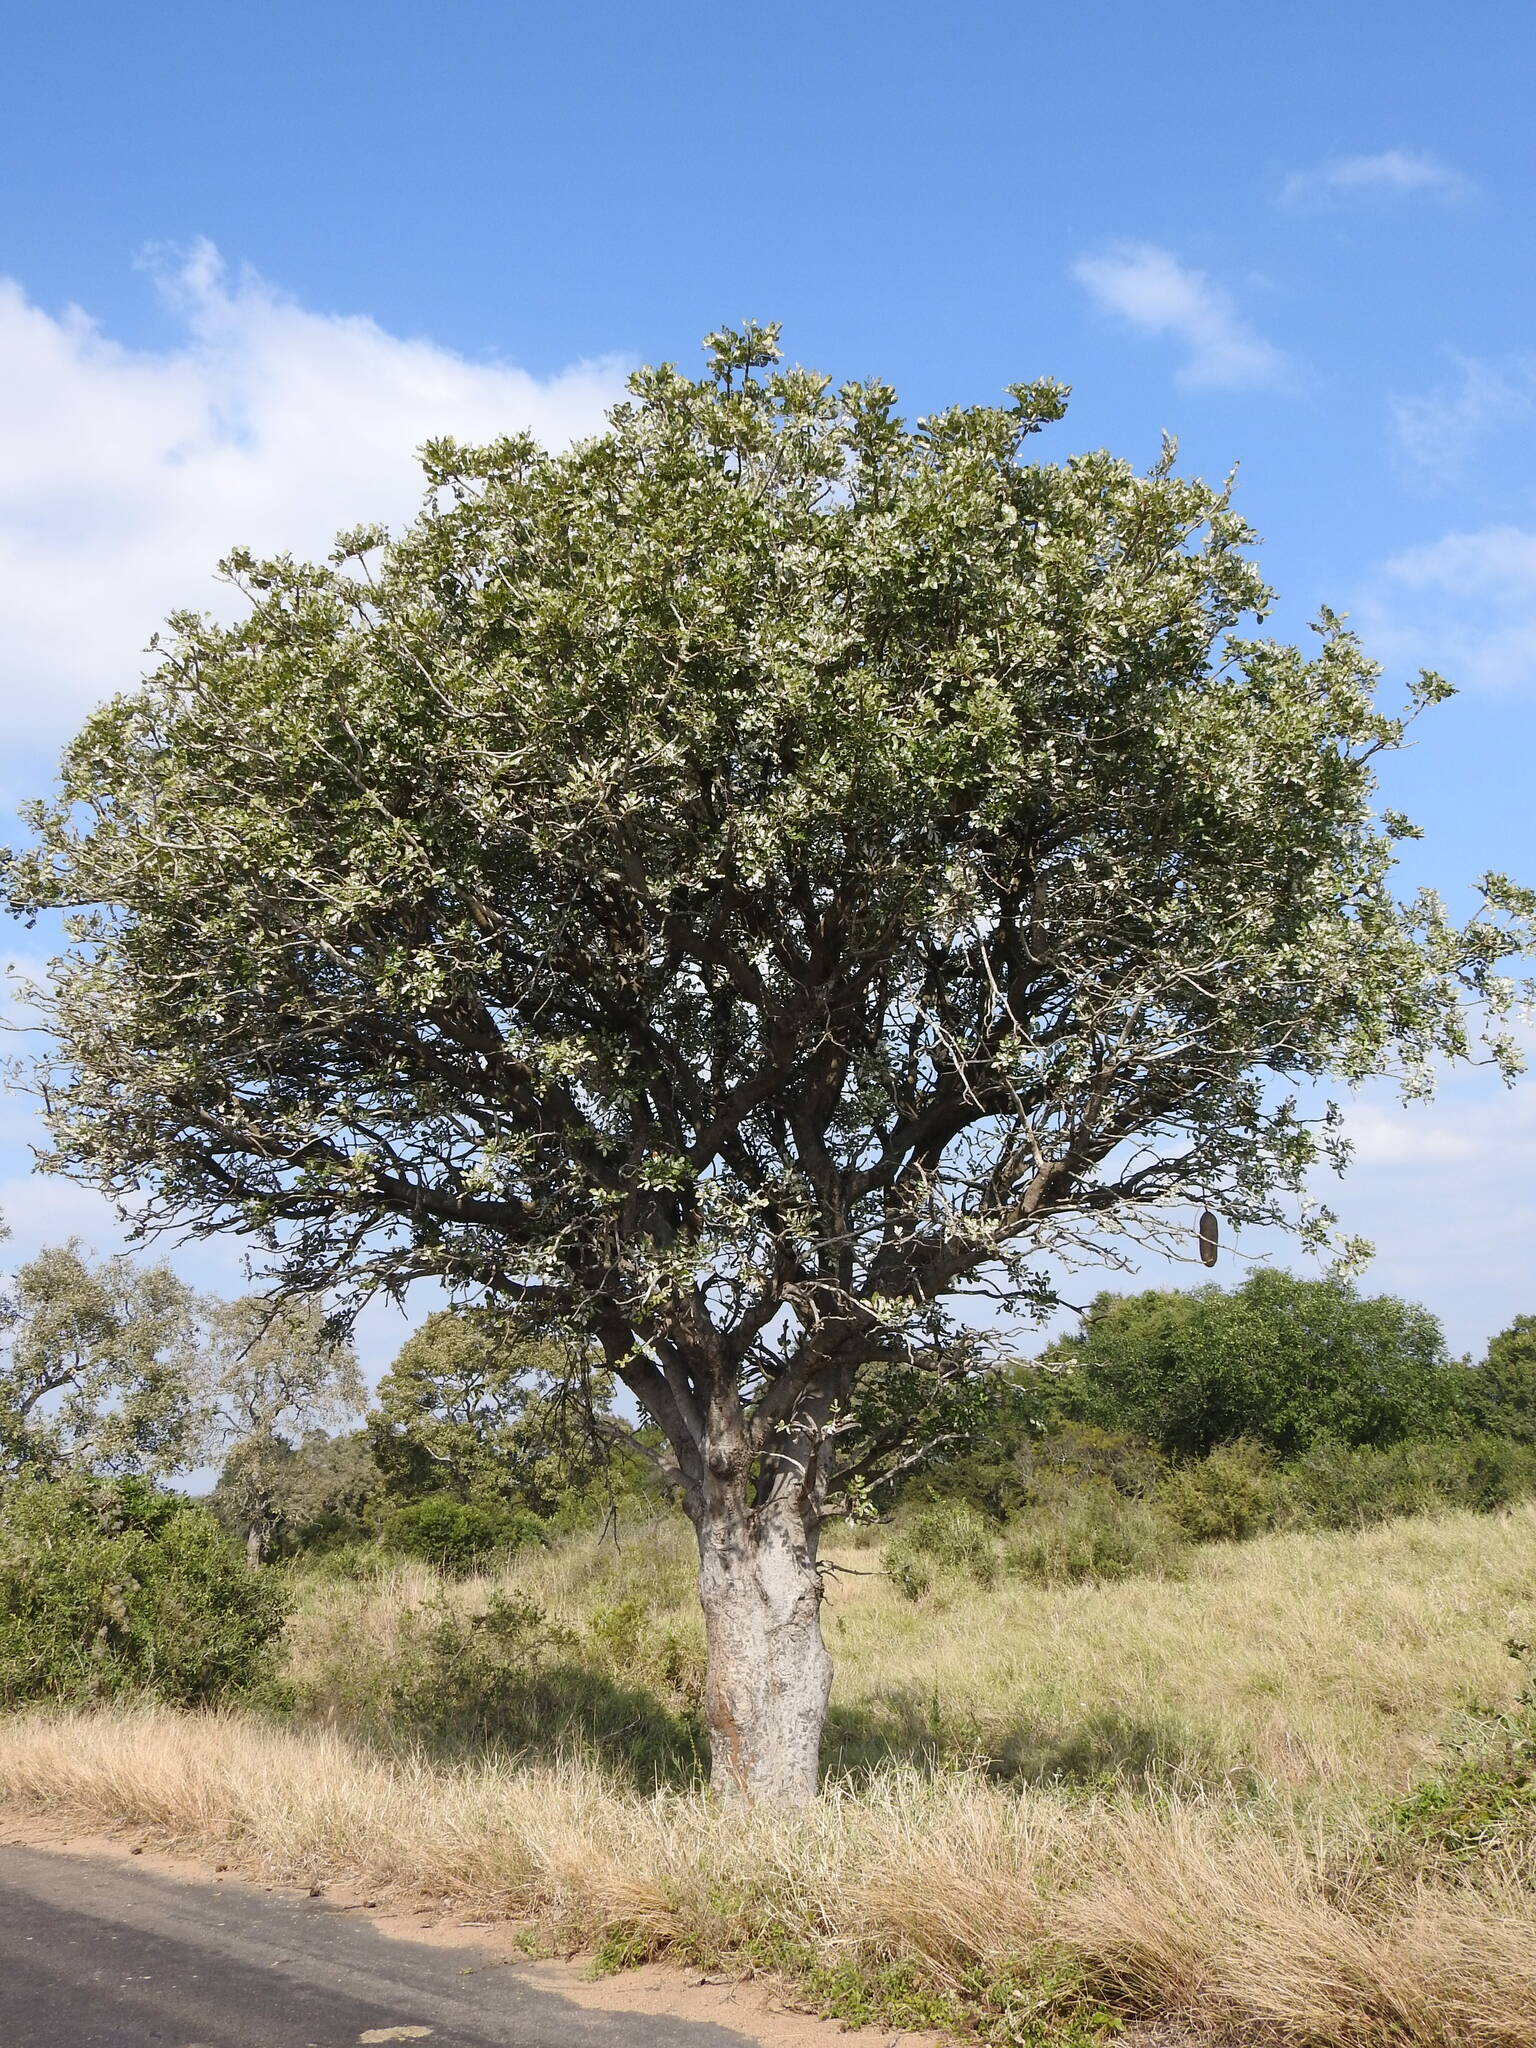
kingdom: Plantae
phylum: Tracheophyta
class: Magnoliopsida
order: Lamiales
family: Bignoniaceae
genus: Kigelia
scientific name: Kigelia africana
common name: Sausage tree
